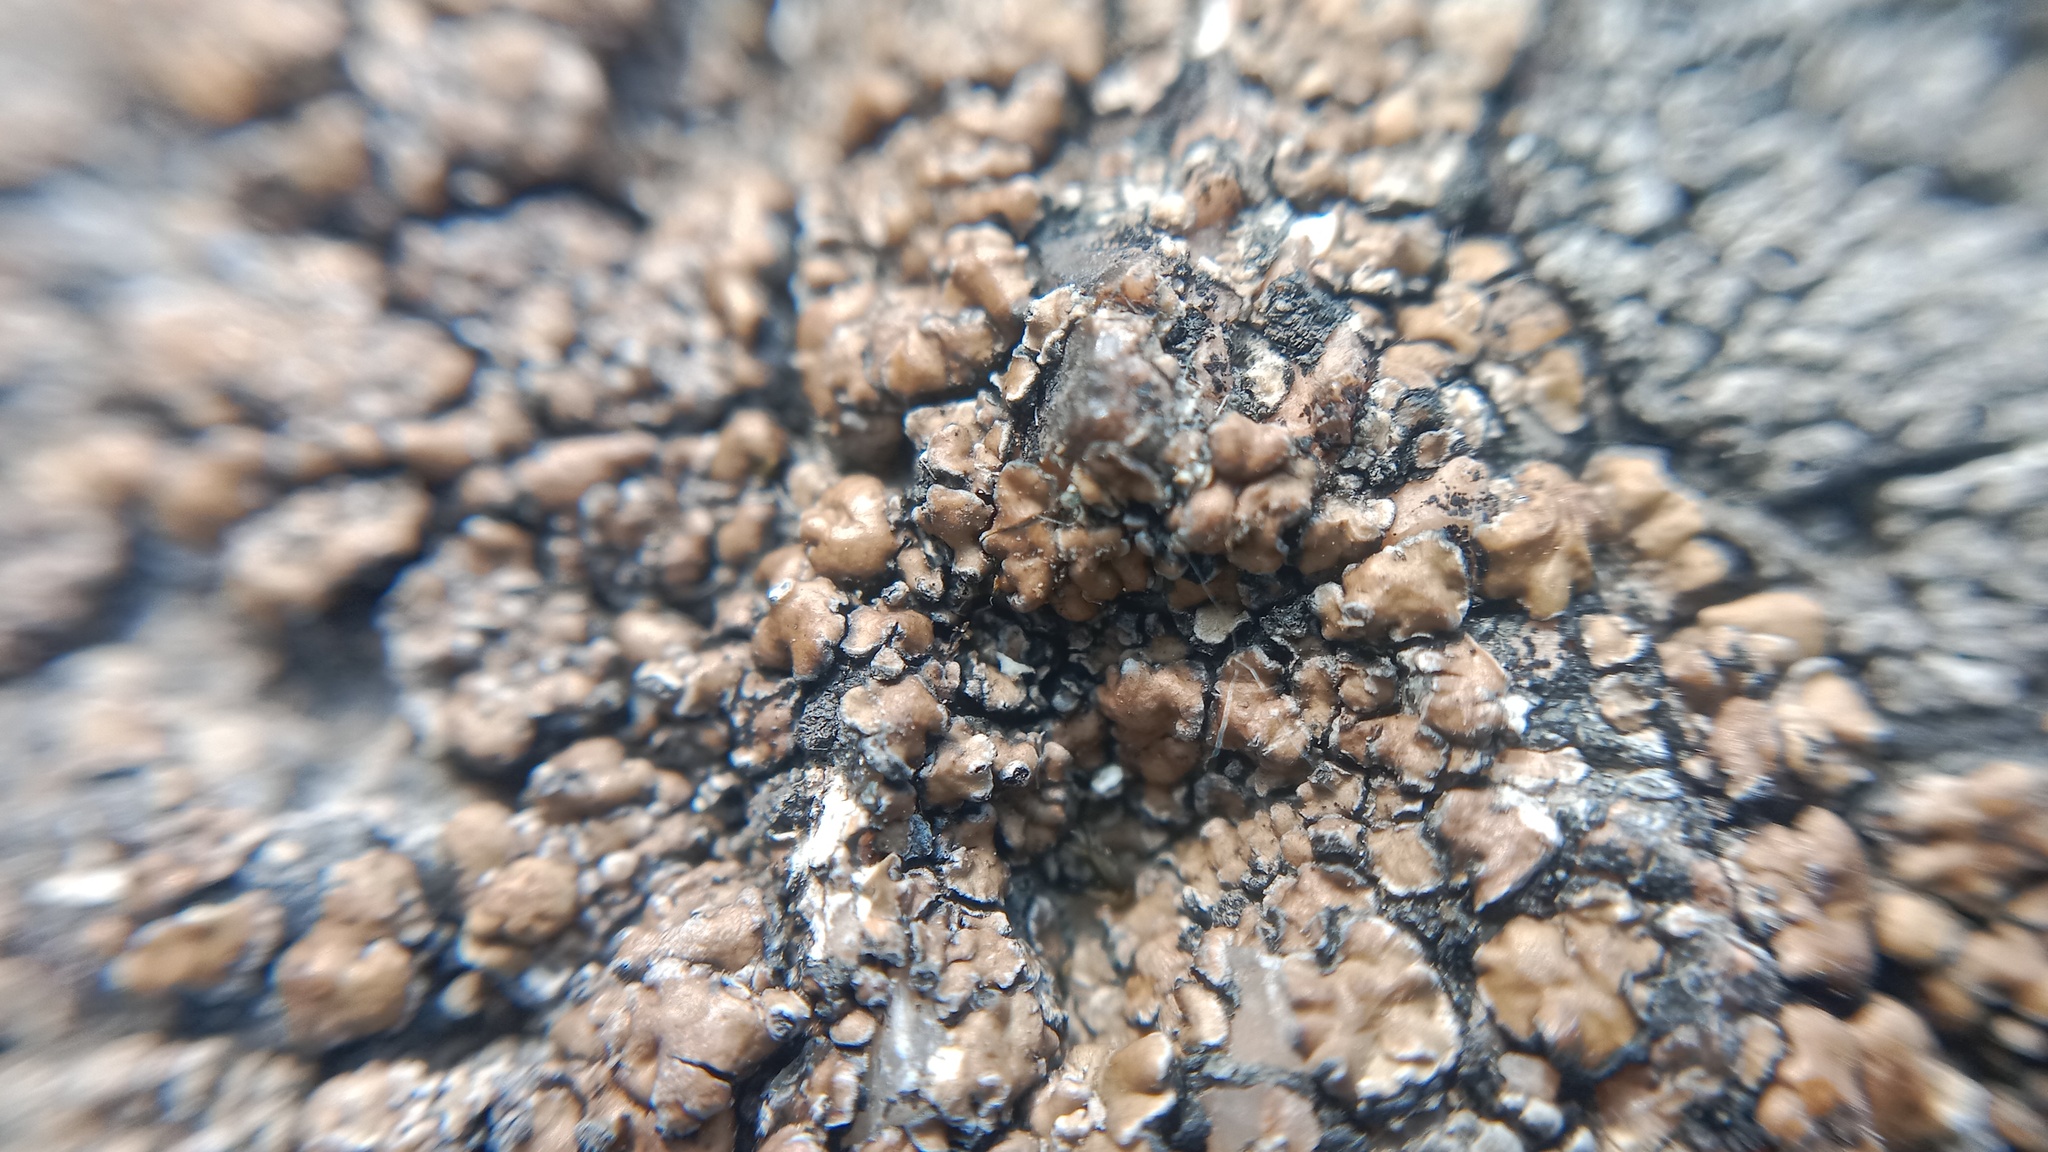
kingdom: Fungi
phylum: Ascomycota
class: Lecanoromycetes
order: Lecideales
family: Lecideaceae
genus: Lecidea
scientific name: Lecidea fuscoatra
